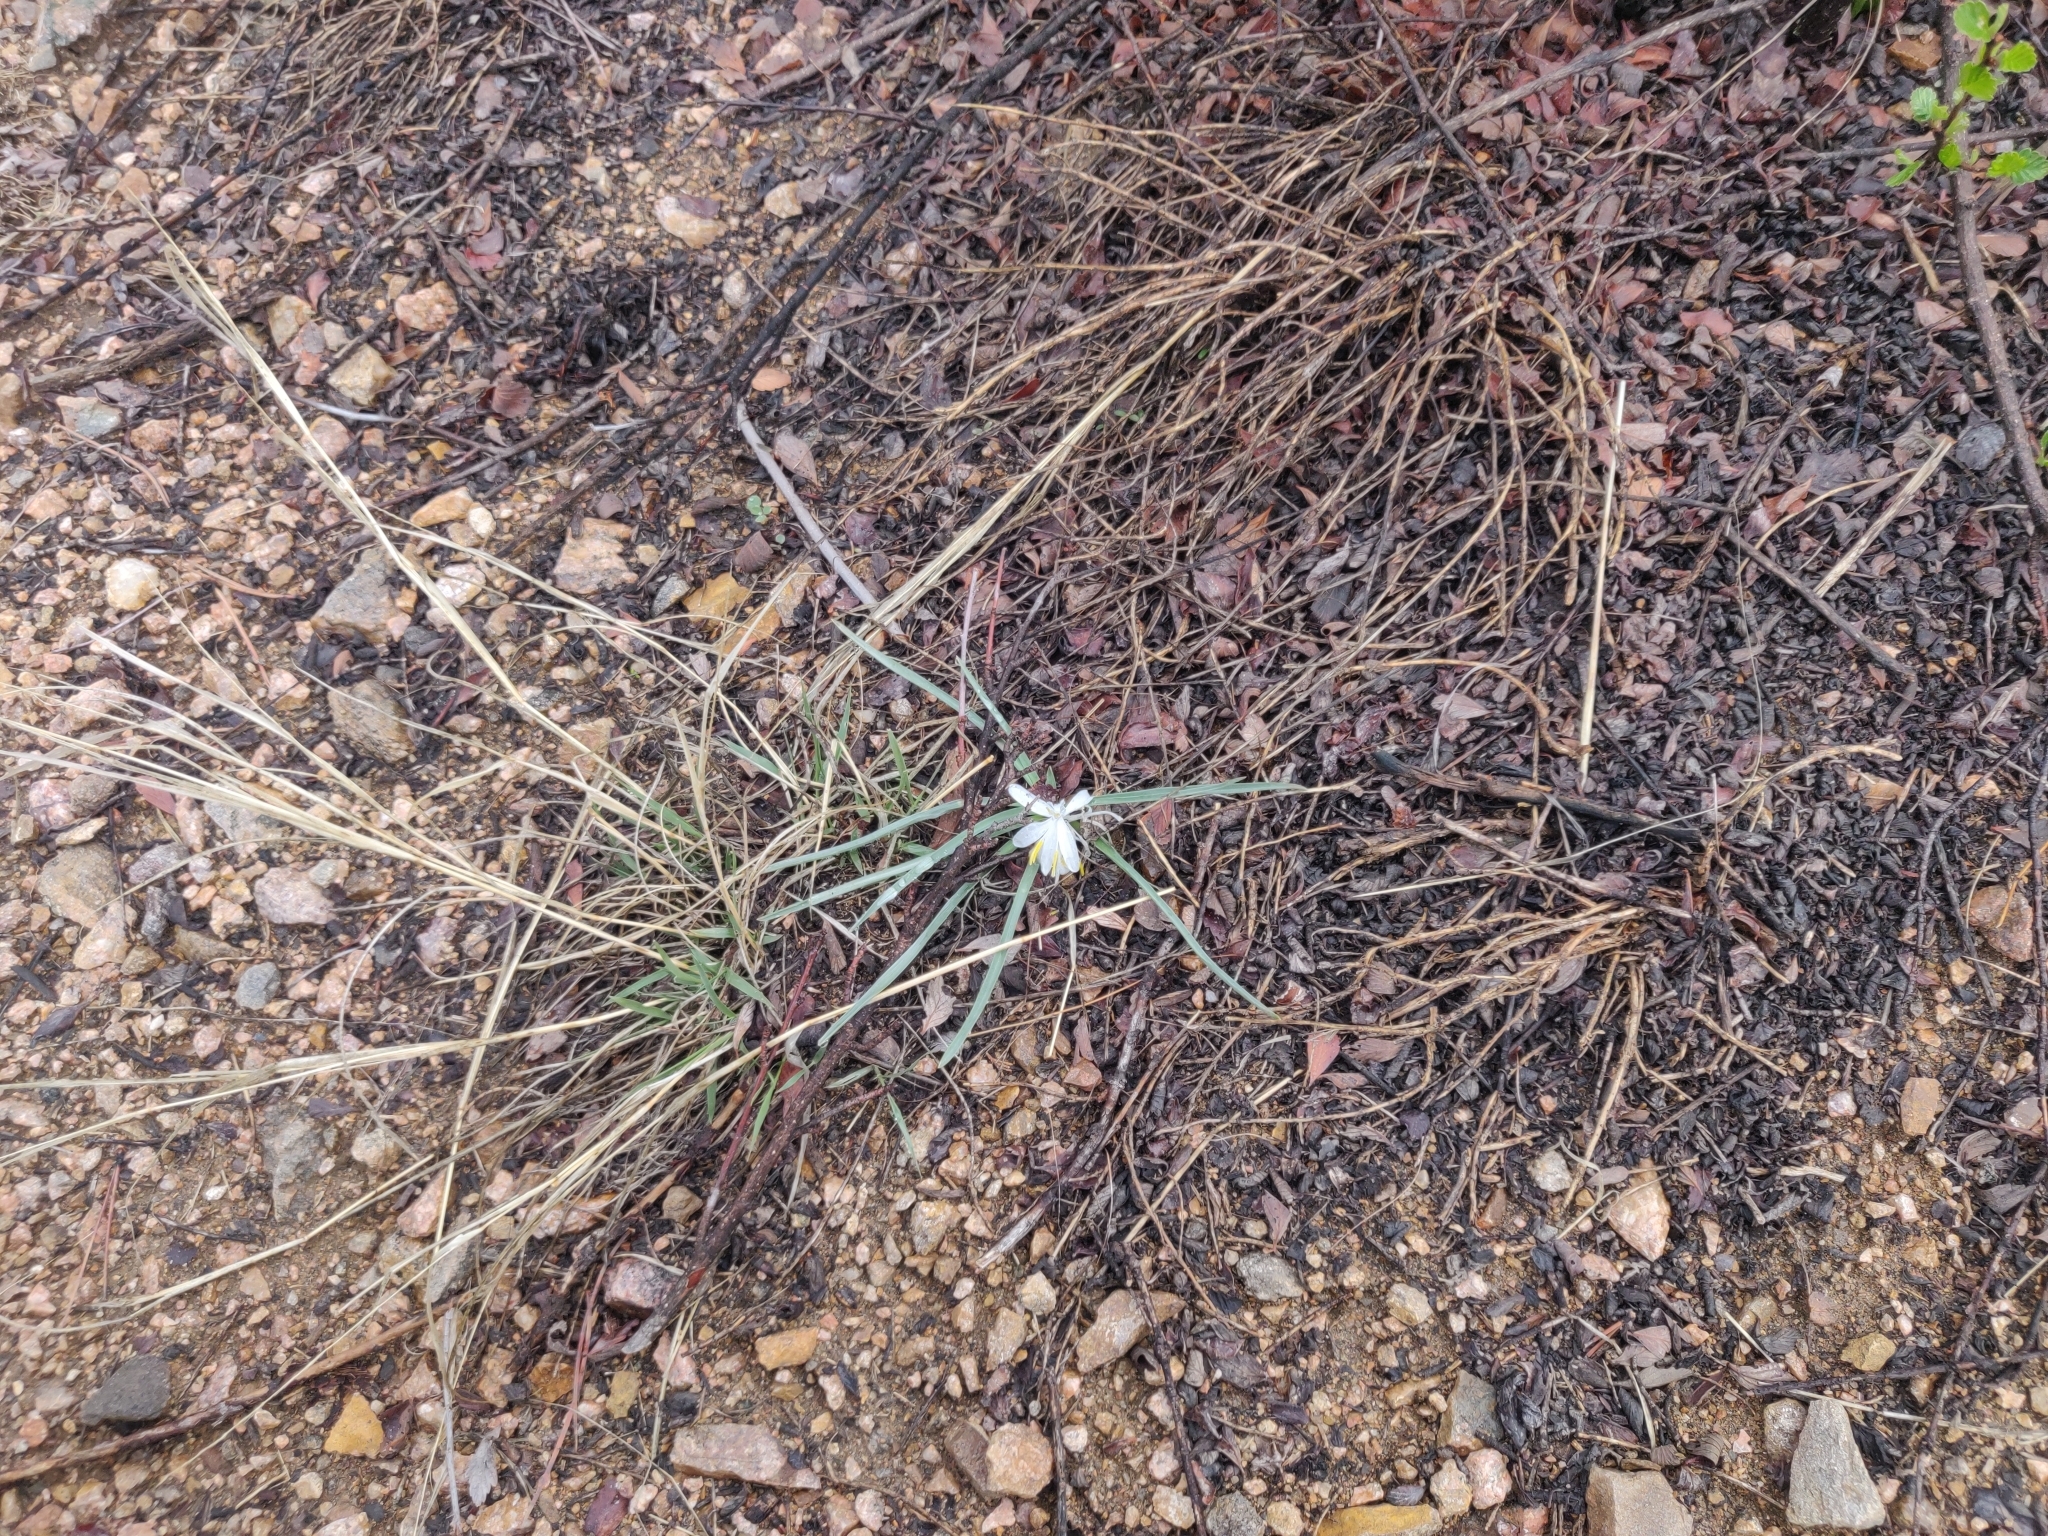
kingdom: Plantae
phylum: Tracheophyta
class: Liliopsida
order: Asparagales
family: Asparagaceae
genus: Leucocrinum
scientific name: Leucocrinum montanum
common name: Mountain-lily
